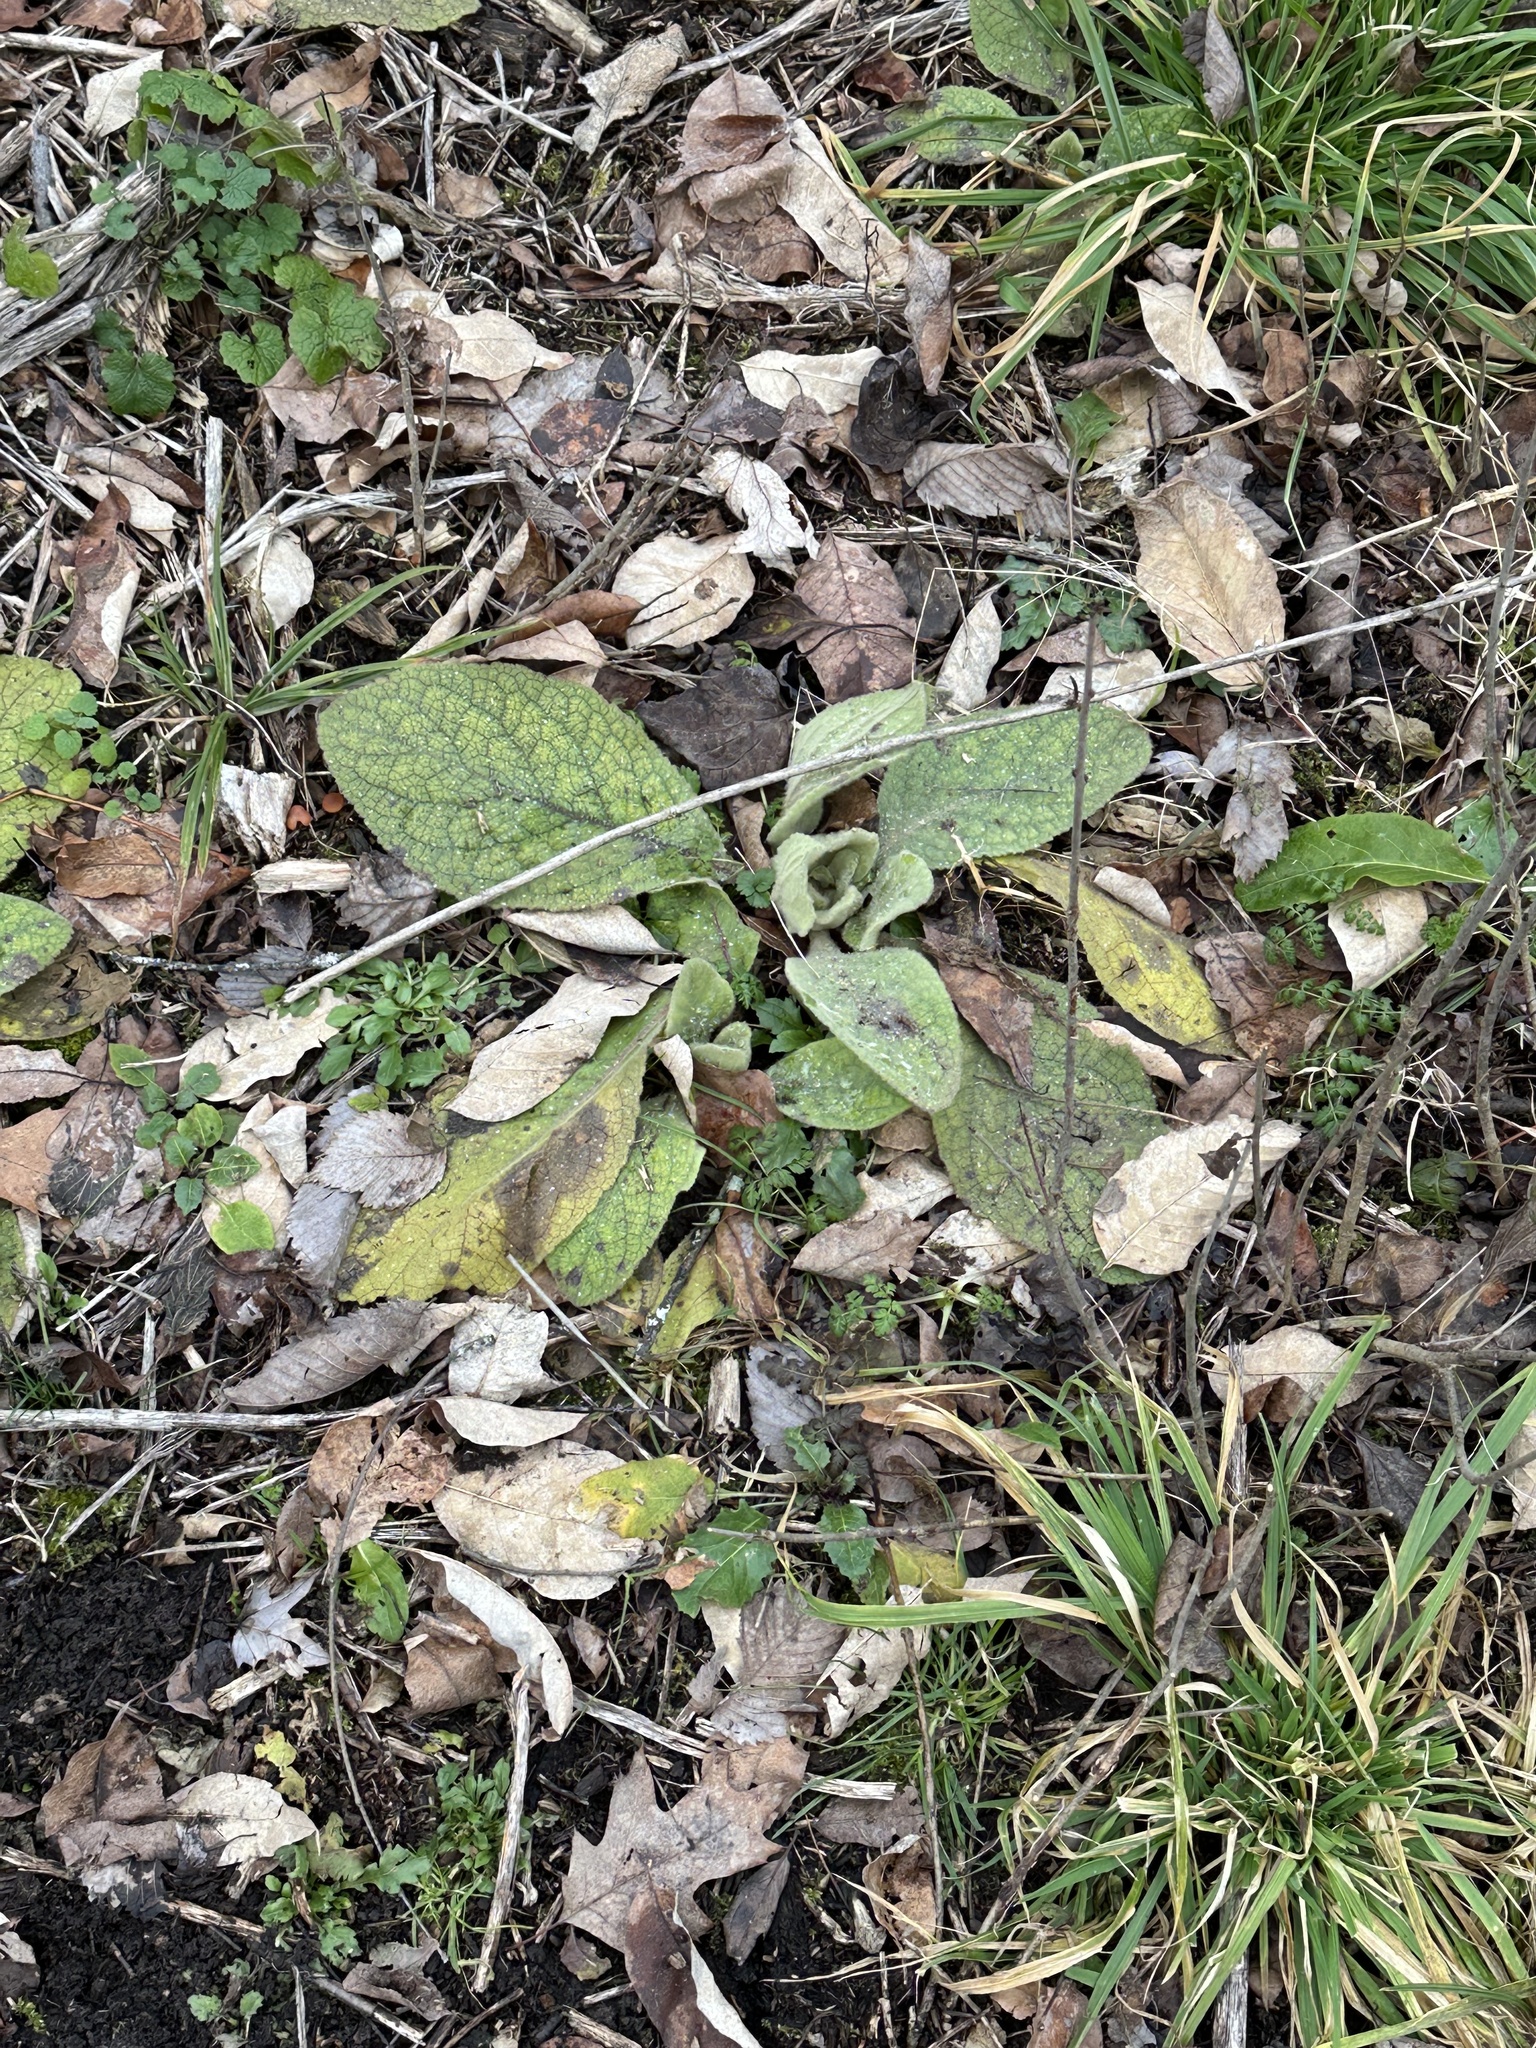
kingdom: Plantae
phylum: Tracheophyta
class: Magnoliopsida
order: Lamiales
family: Scrophulariaceae
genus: Verbascum
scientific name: Verbascum thapsus
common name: Common mullein
